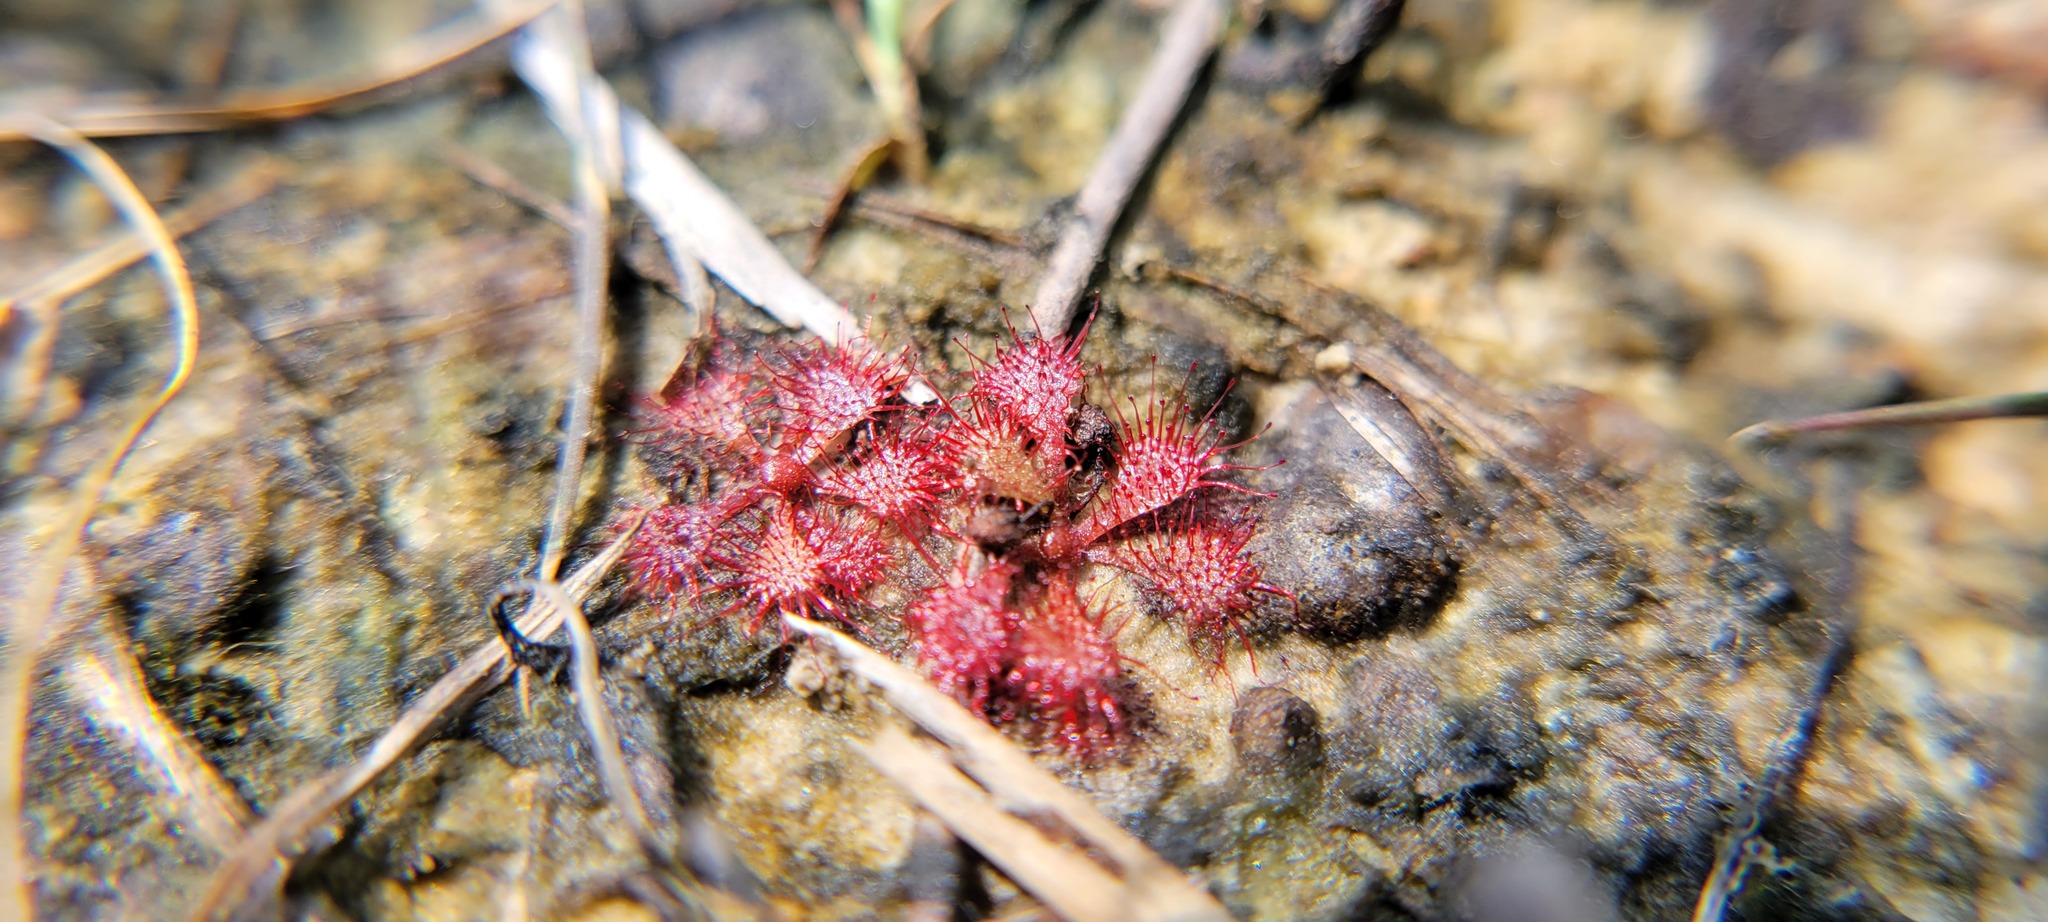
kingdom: Plantae
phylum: Tracheophyta
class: Magnoliopsida
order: Caryophyllales
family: Droseraceae
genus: Drosera
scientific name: Drosera brevifolia
